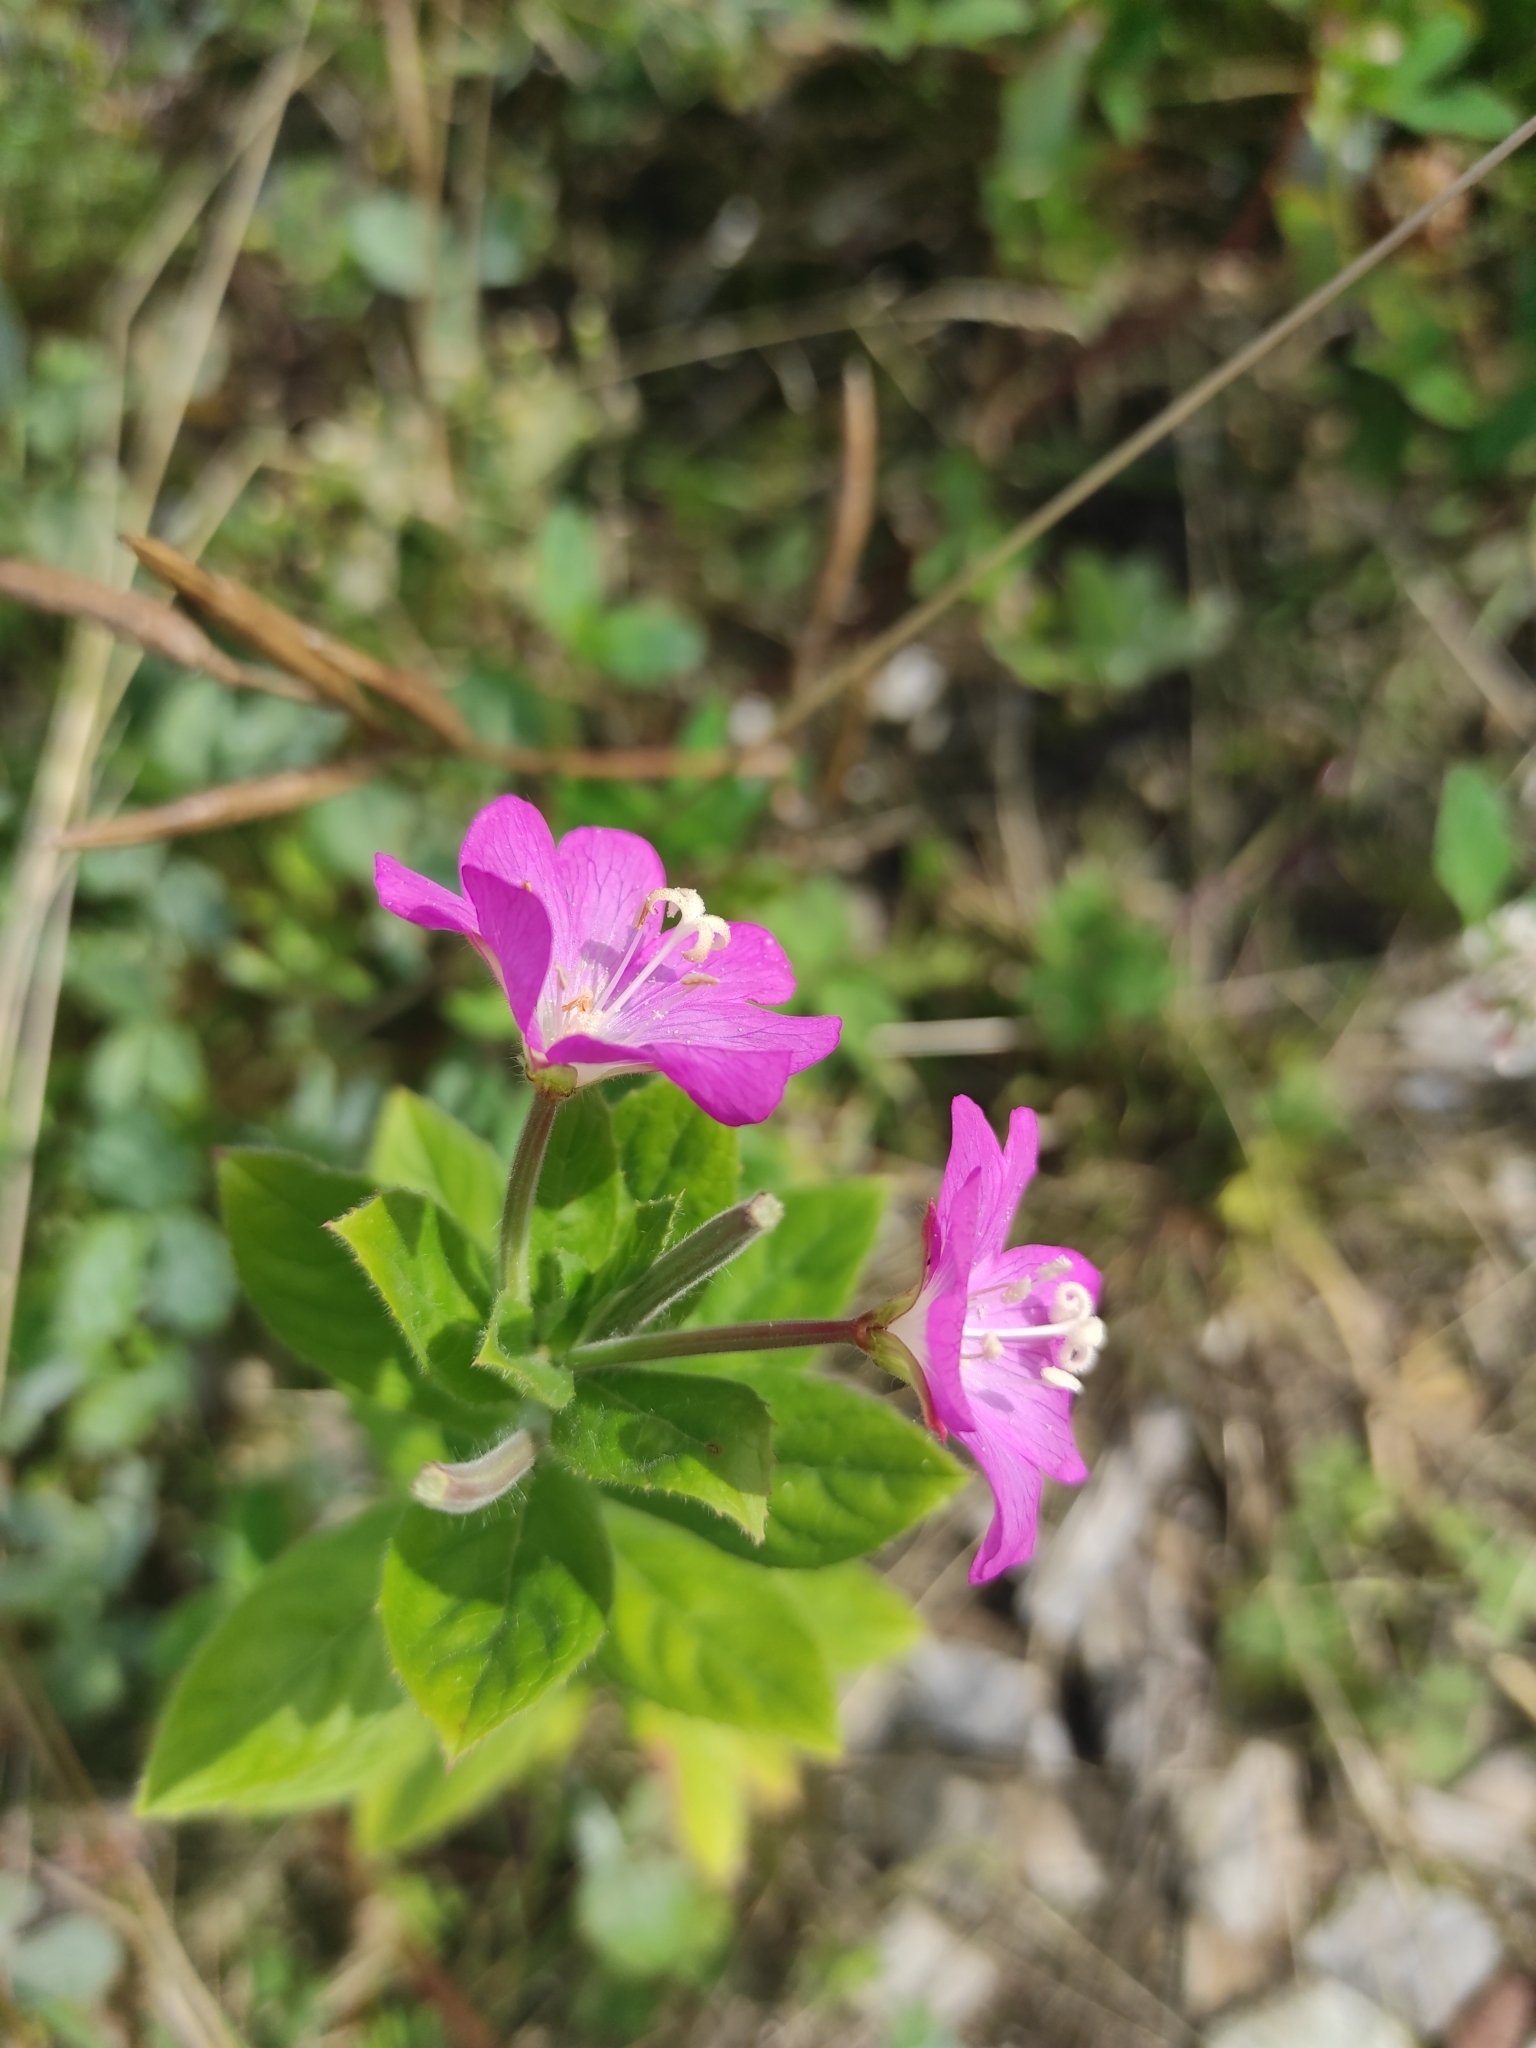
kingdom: Plantae
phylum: Tracheophyta
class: Magnoliopsida
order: Myrtales
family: Onagraceae
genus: Epilobium
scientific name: Epilobium hirsutum
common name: Great willowherb
